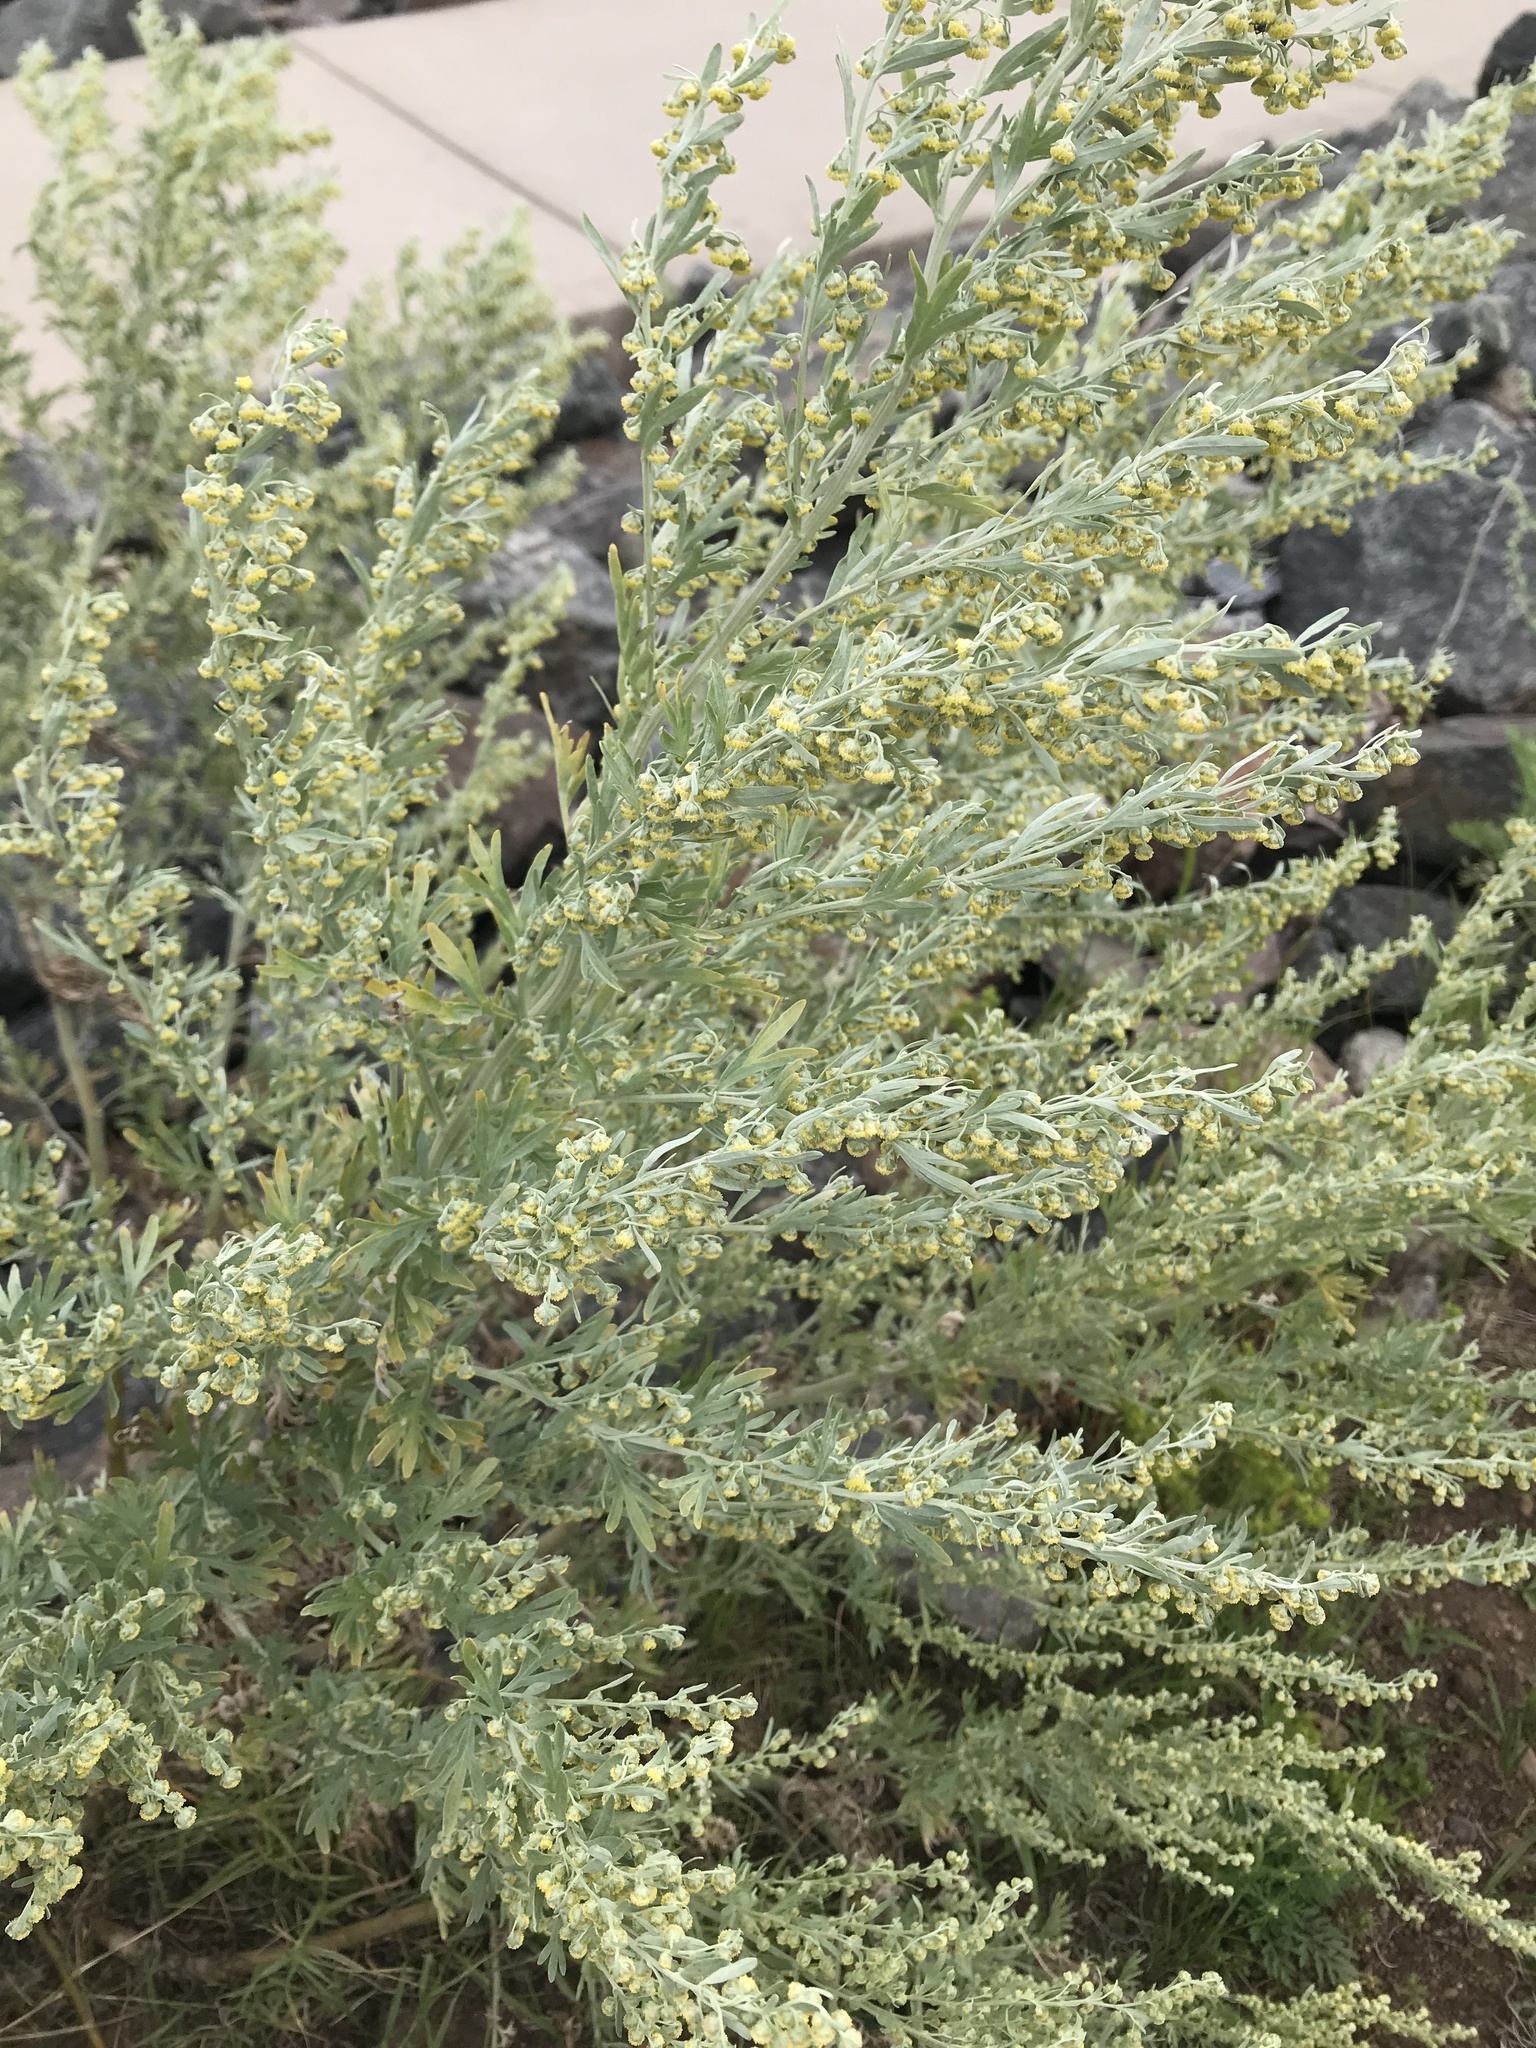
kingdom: Plantae
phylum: Tracheophyta
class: Magnoliopsida
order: Asterales
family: Asteraceae
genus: Artemisia
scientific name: Artemisia absinthium
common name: Wormwood
